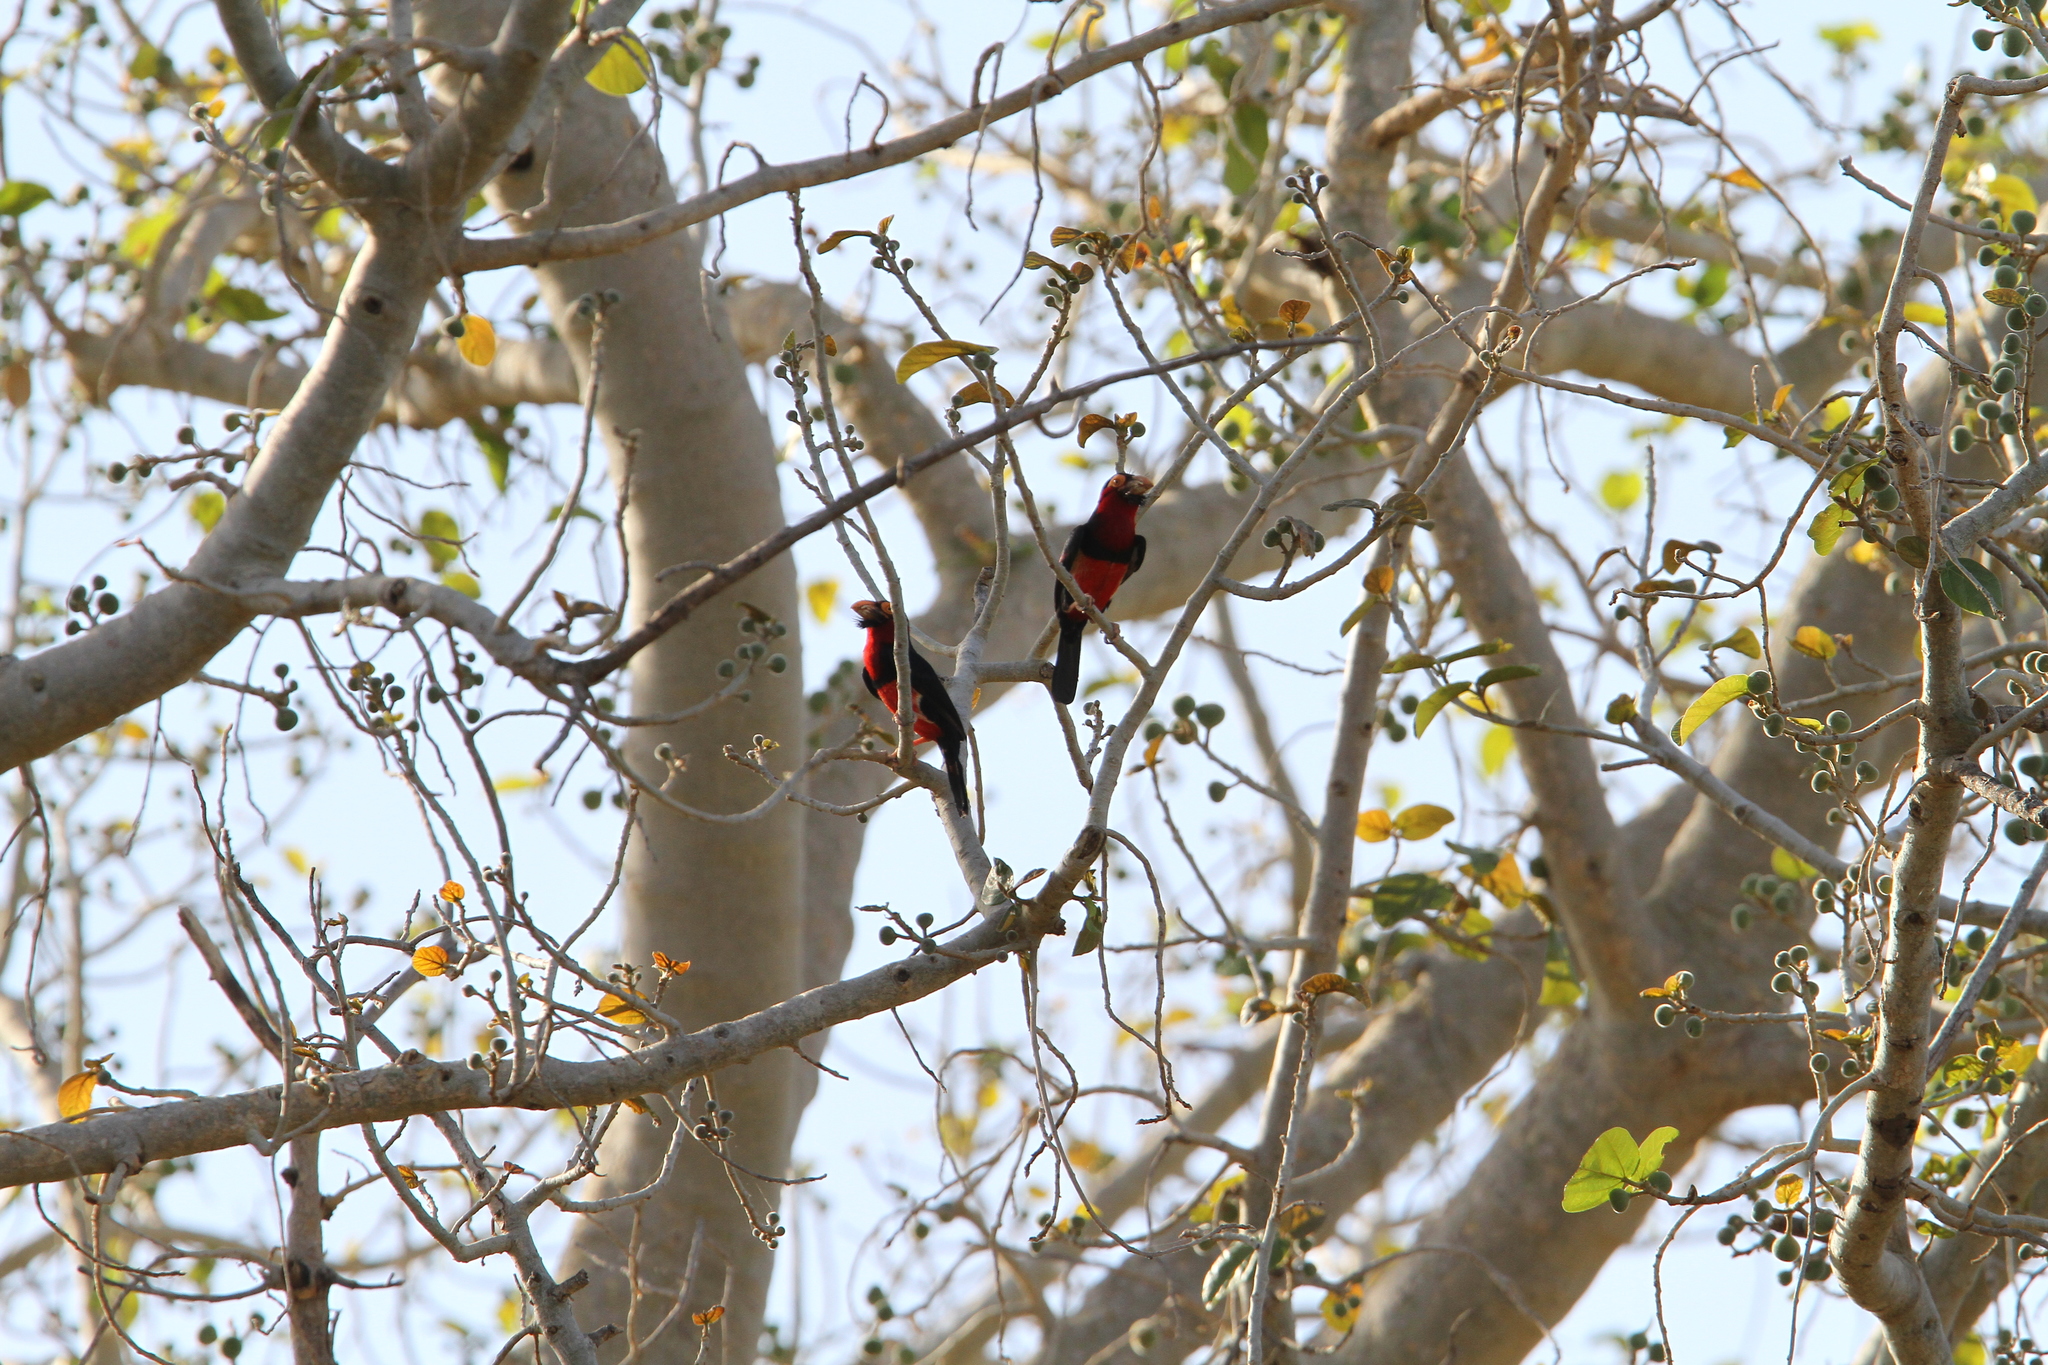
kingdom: Animalia
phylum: Chordata
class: Aves
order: Piciformes
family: Lybiidae
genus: Lybius
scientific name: Lybius dubius
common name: Bearded barbet
